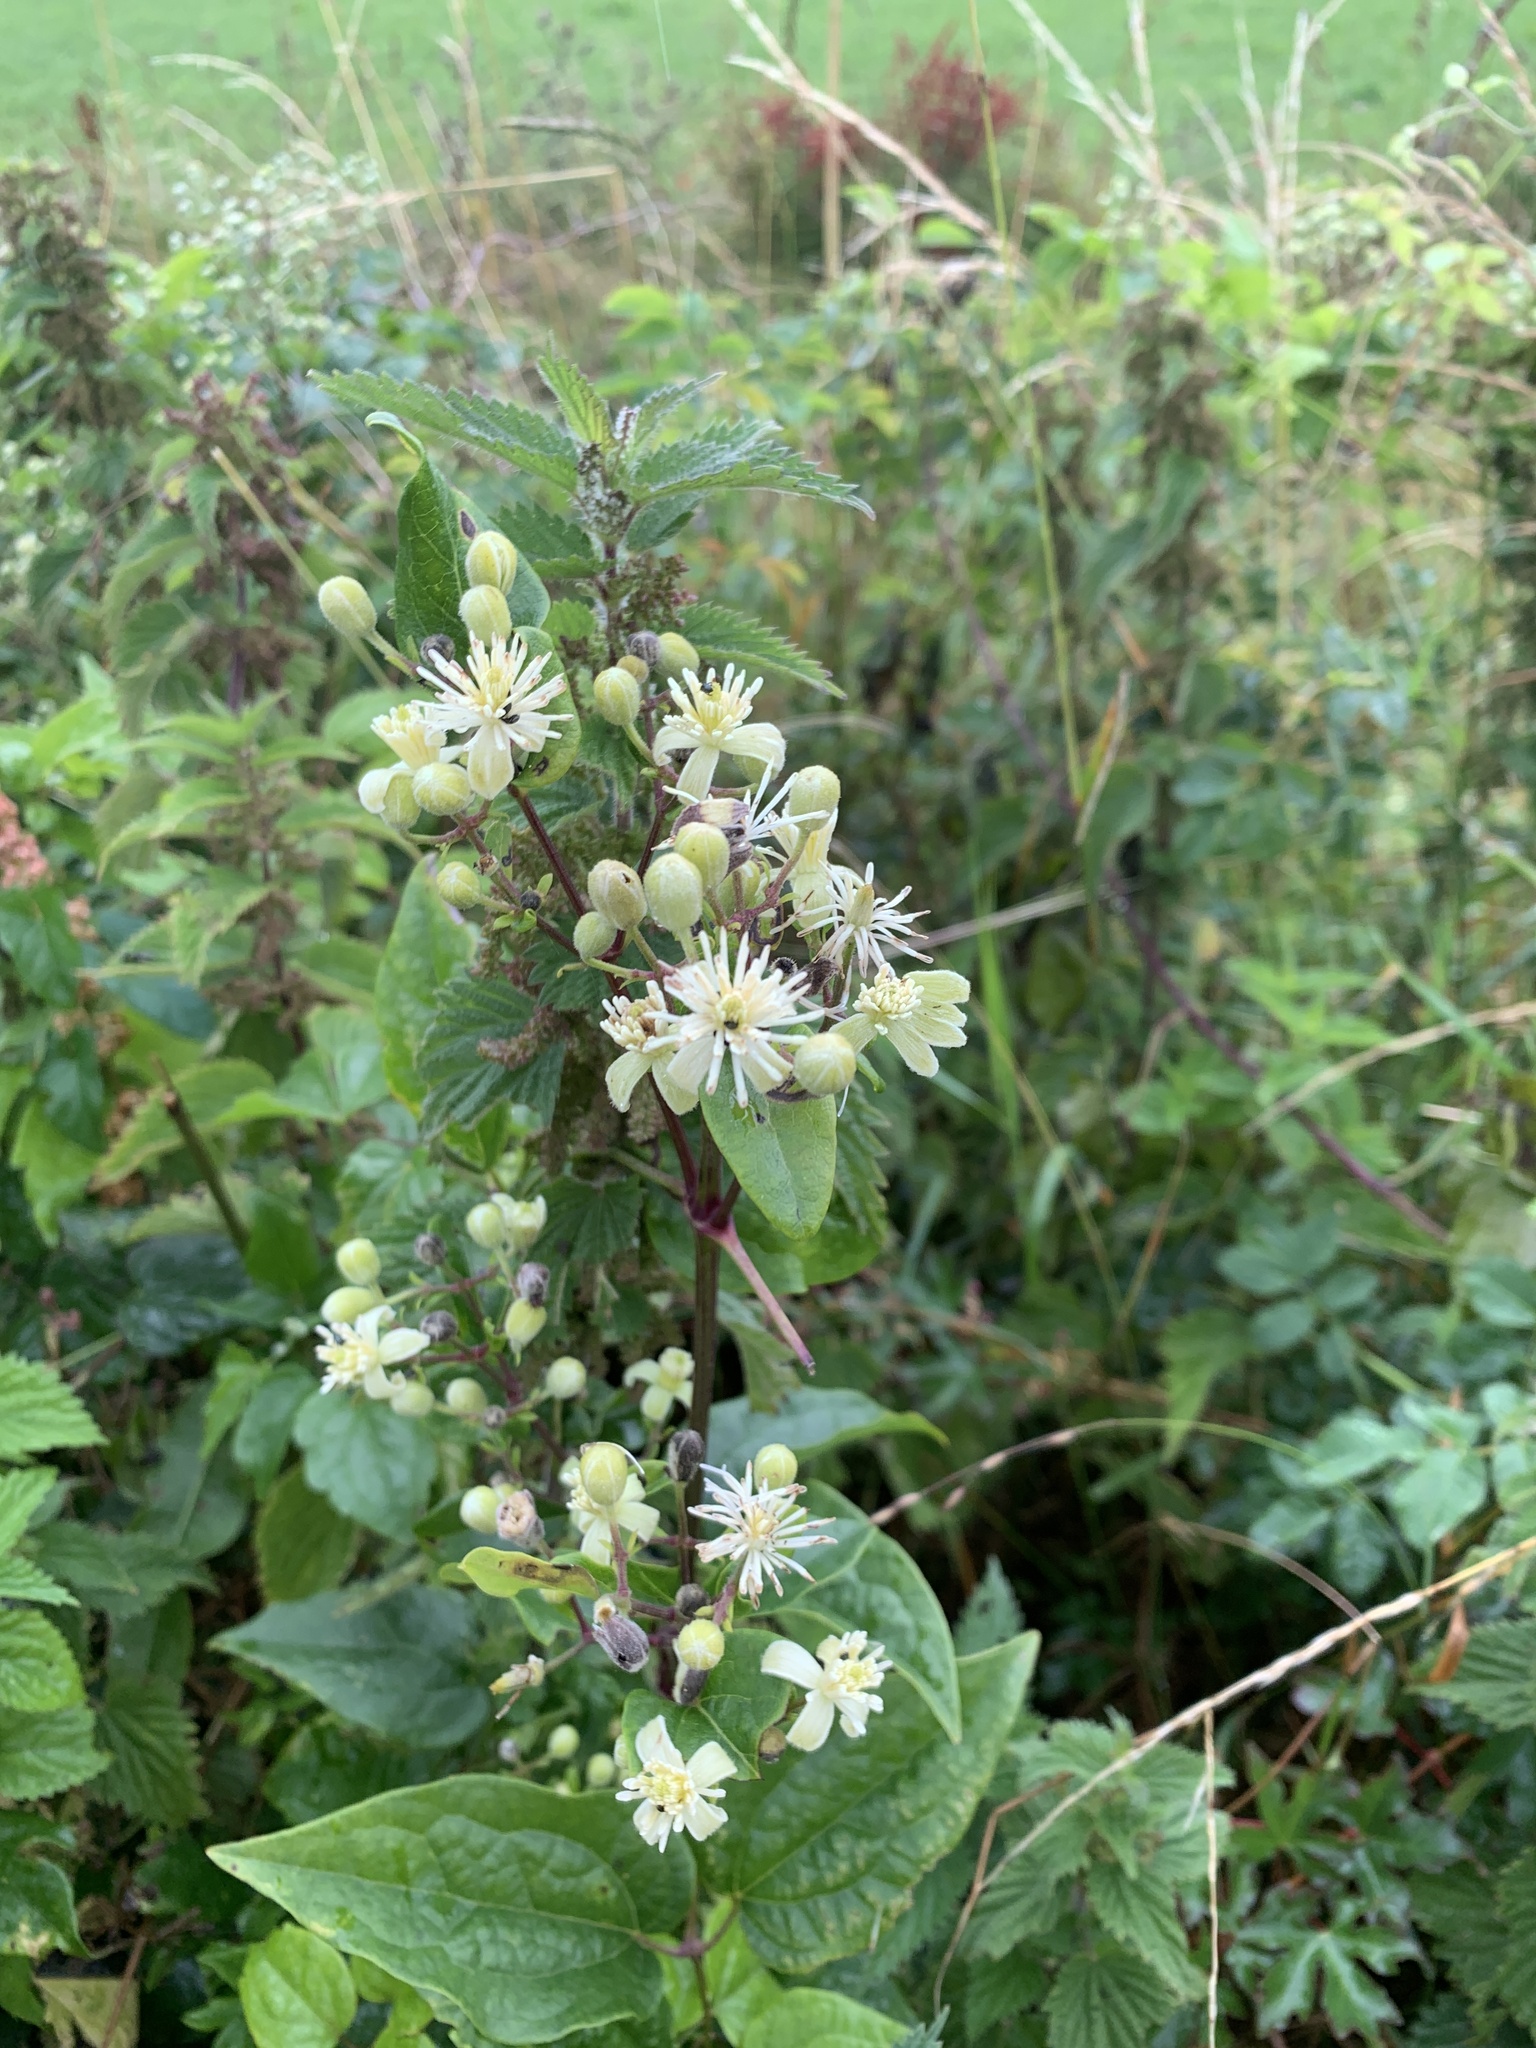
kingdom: Plantae
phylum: Tracheophyta
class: Magnoliopsida
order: Ranunculales
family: Ranunculaceae
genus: Clematis
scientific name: Clematis vitalba
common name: Evergreen clematis
